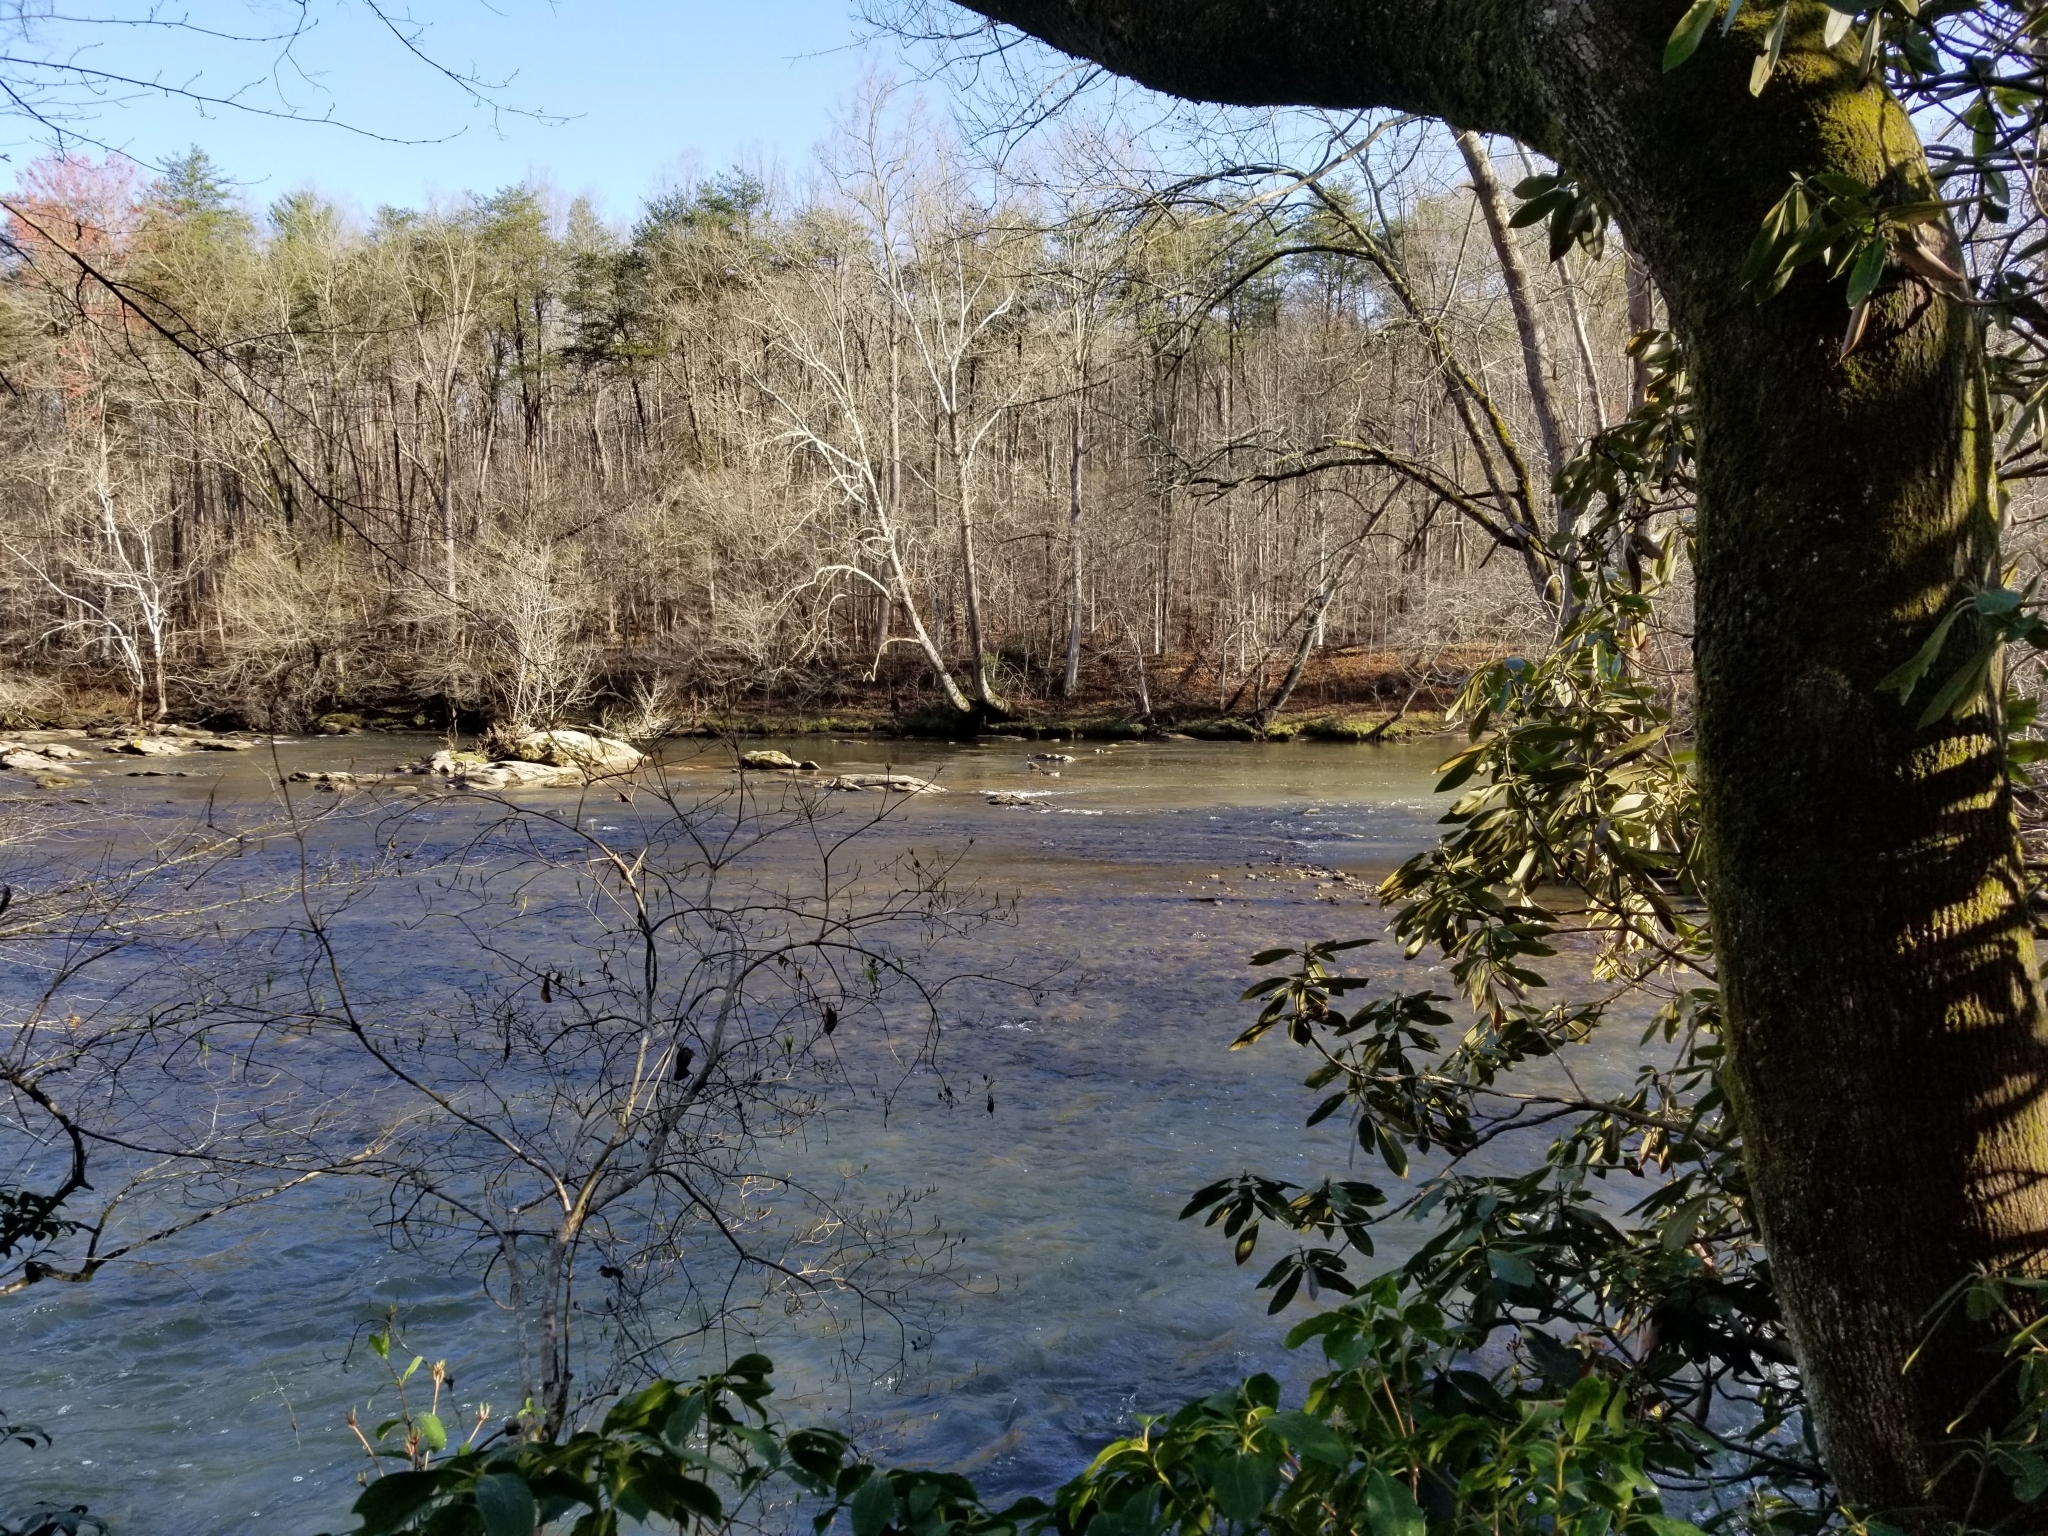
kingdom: Animalia
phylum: Chordata
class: Aves
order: Anseriformes
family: Anatidae
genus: Branta
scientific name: Branta canadensis
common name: Canada goose
